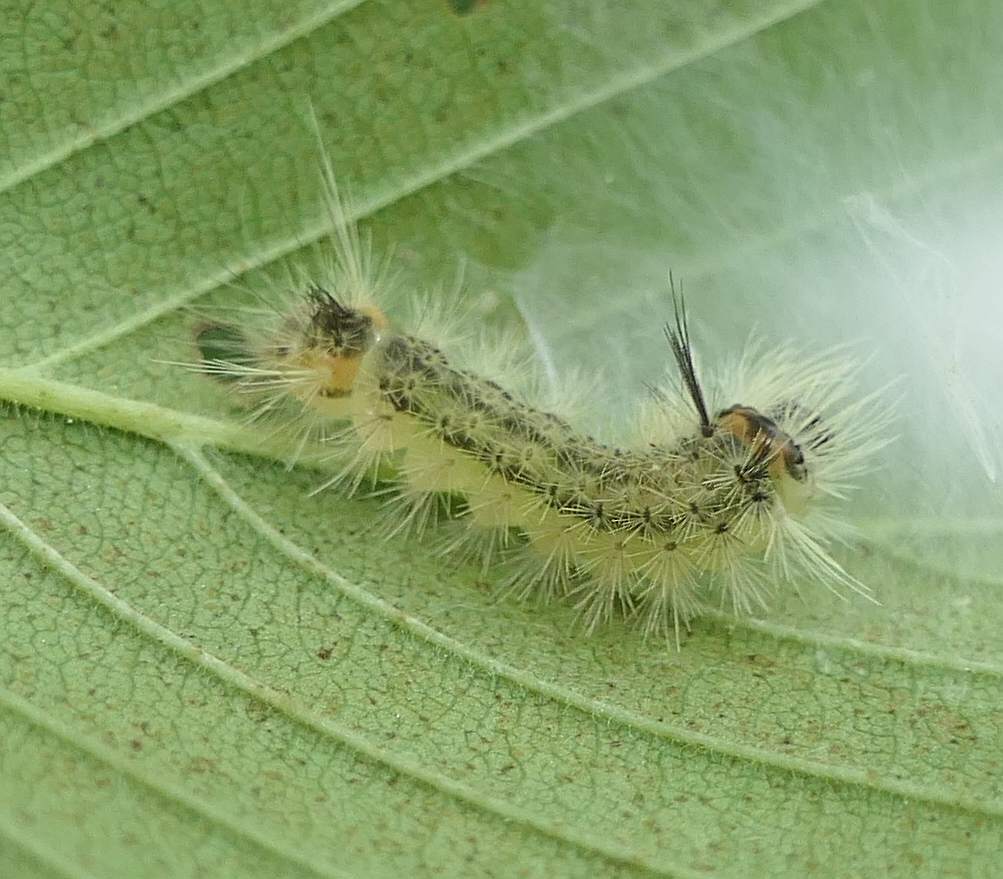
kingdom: Animalia
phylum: Arthropoda
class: Insecta
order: Lepidoptera
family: Erebidae
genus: Halysidota
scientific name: Halysidota tessellaris
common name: Banded tussock moth
